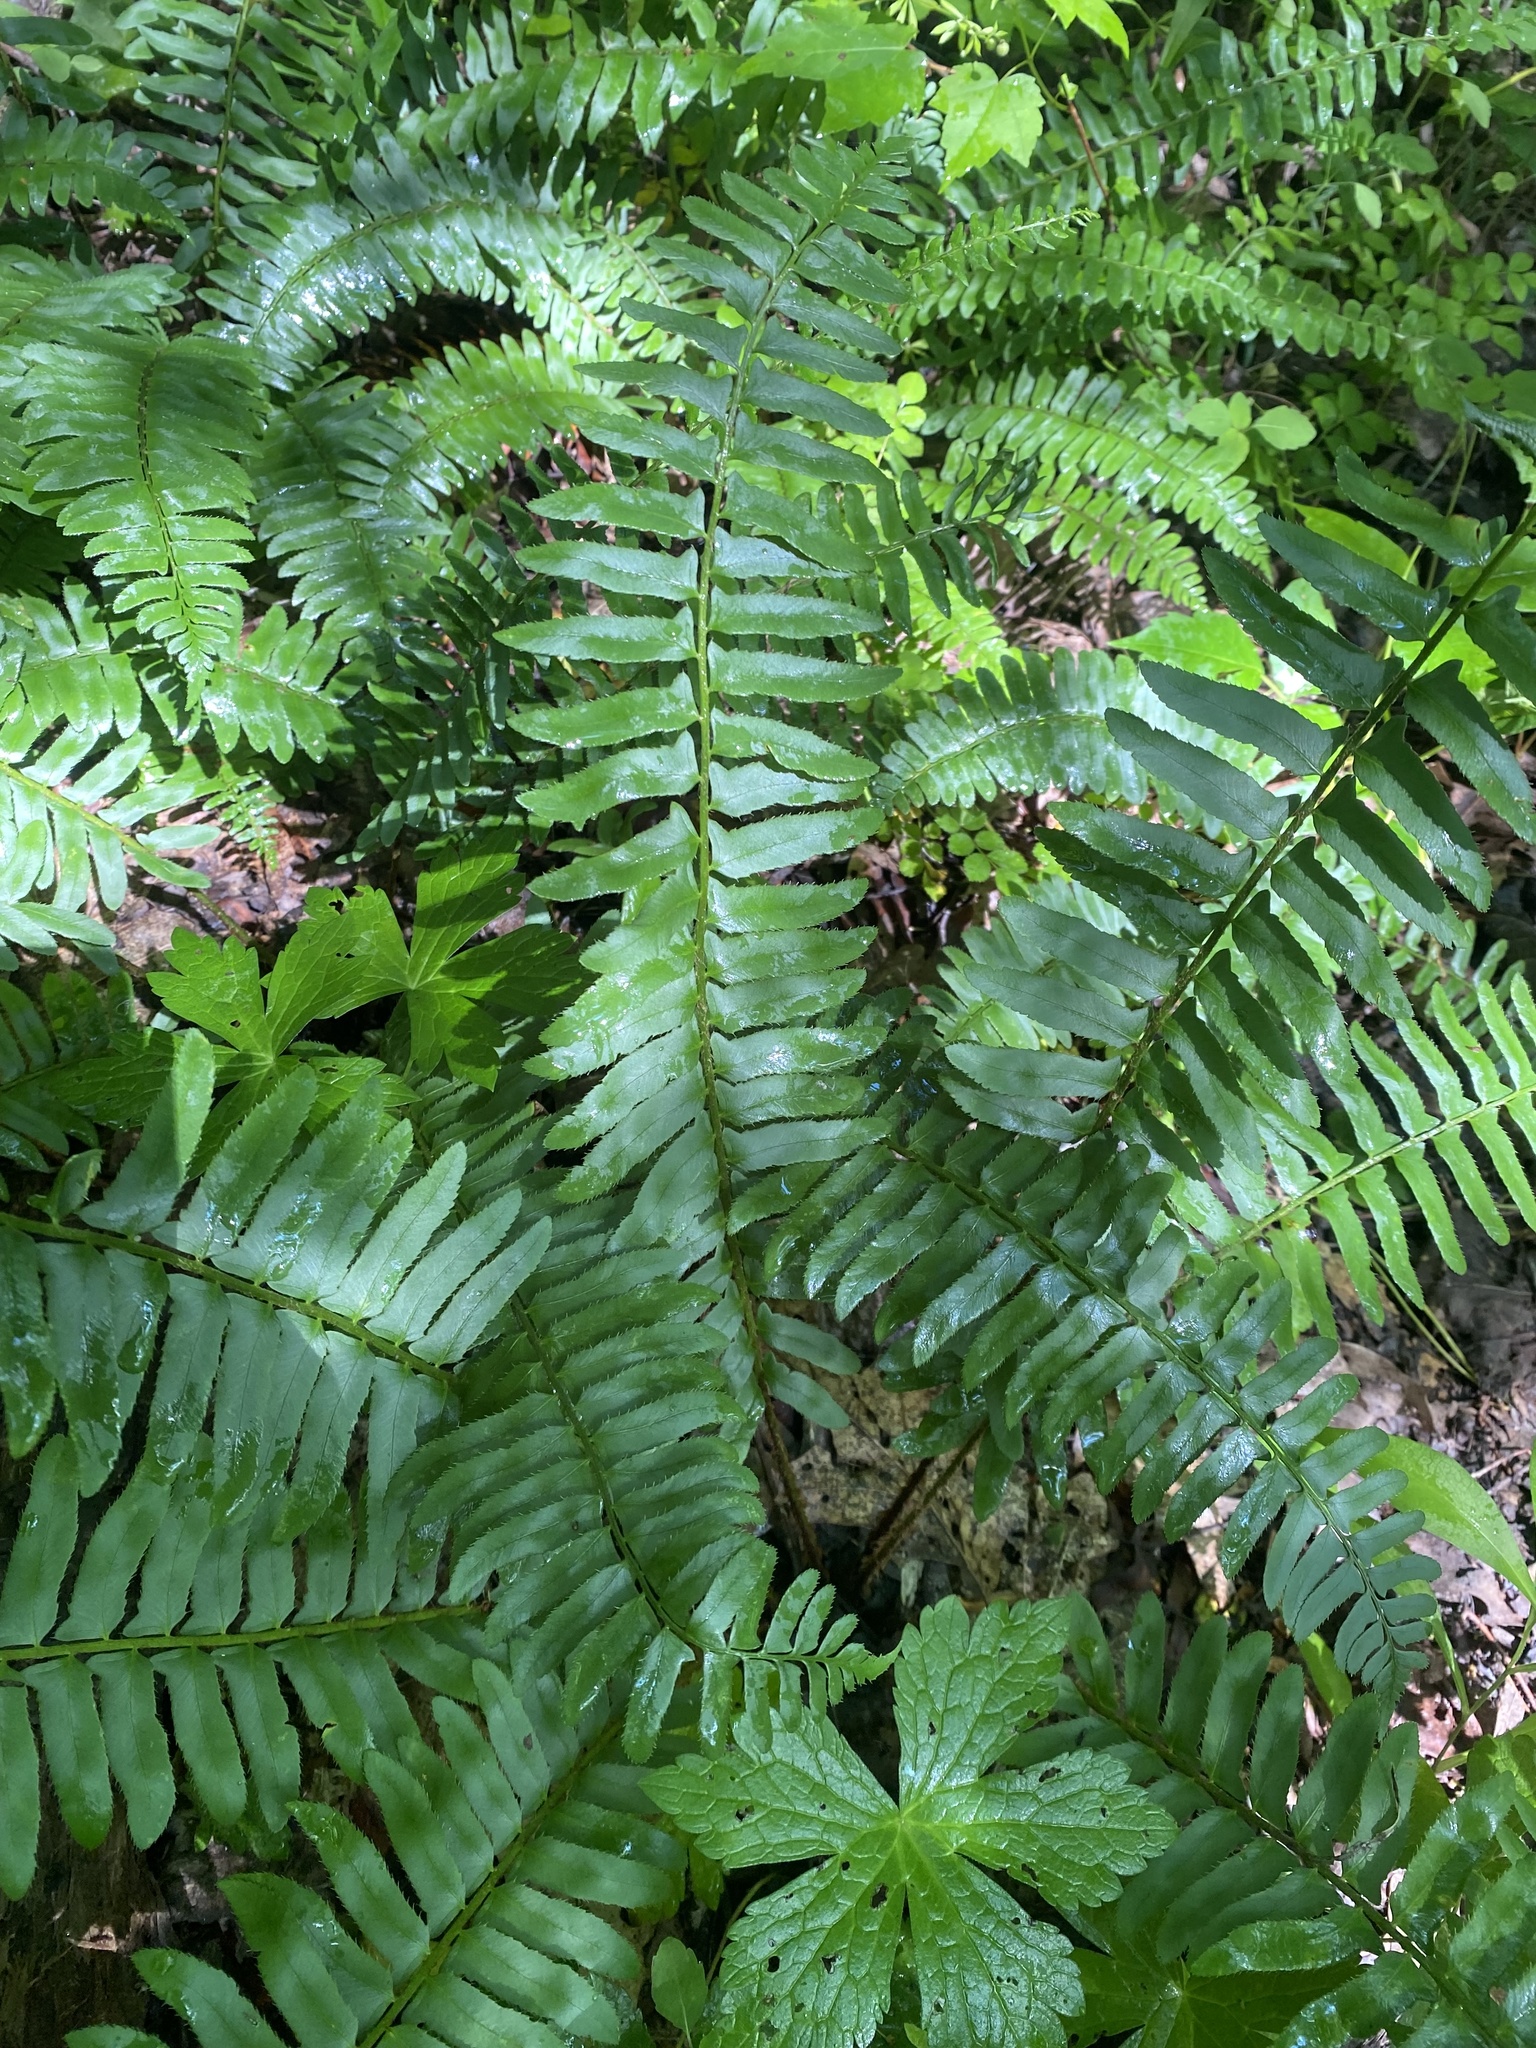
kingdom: Plantae
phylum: Tracheophyta
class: Polypodiopsida
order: Polypodiales
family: Dryopteridaceae
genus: Polystichum
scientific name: Polystichum acrostichoides
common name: Christmas fern
